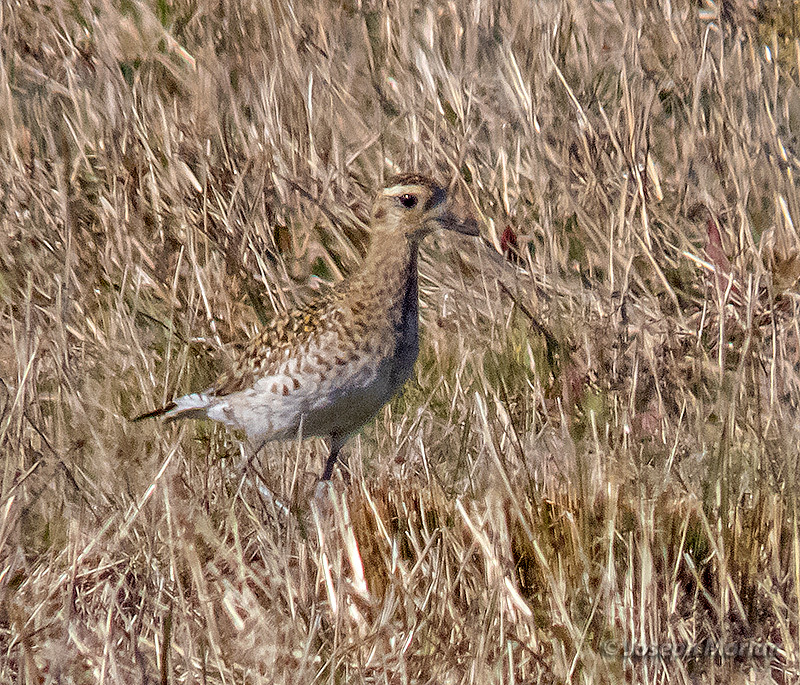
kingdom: Animalia
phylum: Chordata
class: Aves
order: Charadriiformes
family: Charadriidae
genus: Pluvialis
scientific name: Pluvialis fulva
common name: Pacific golden plover
